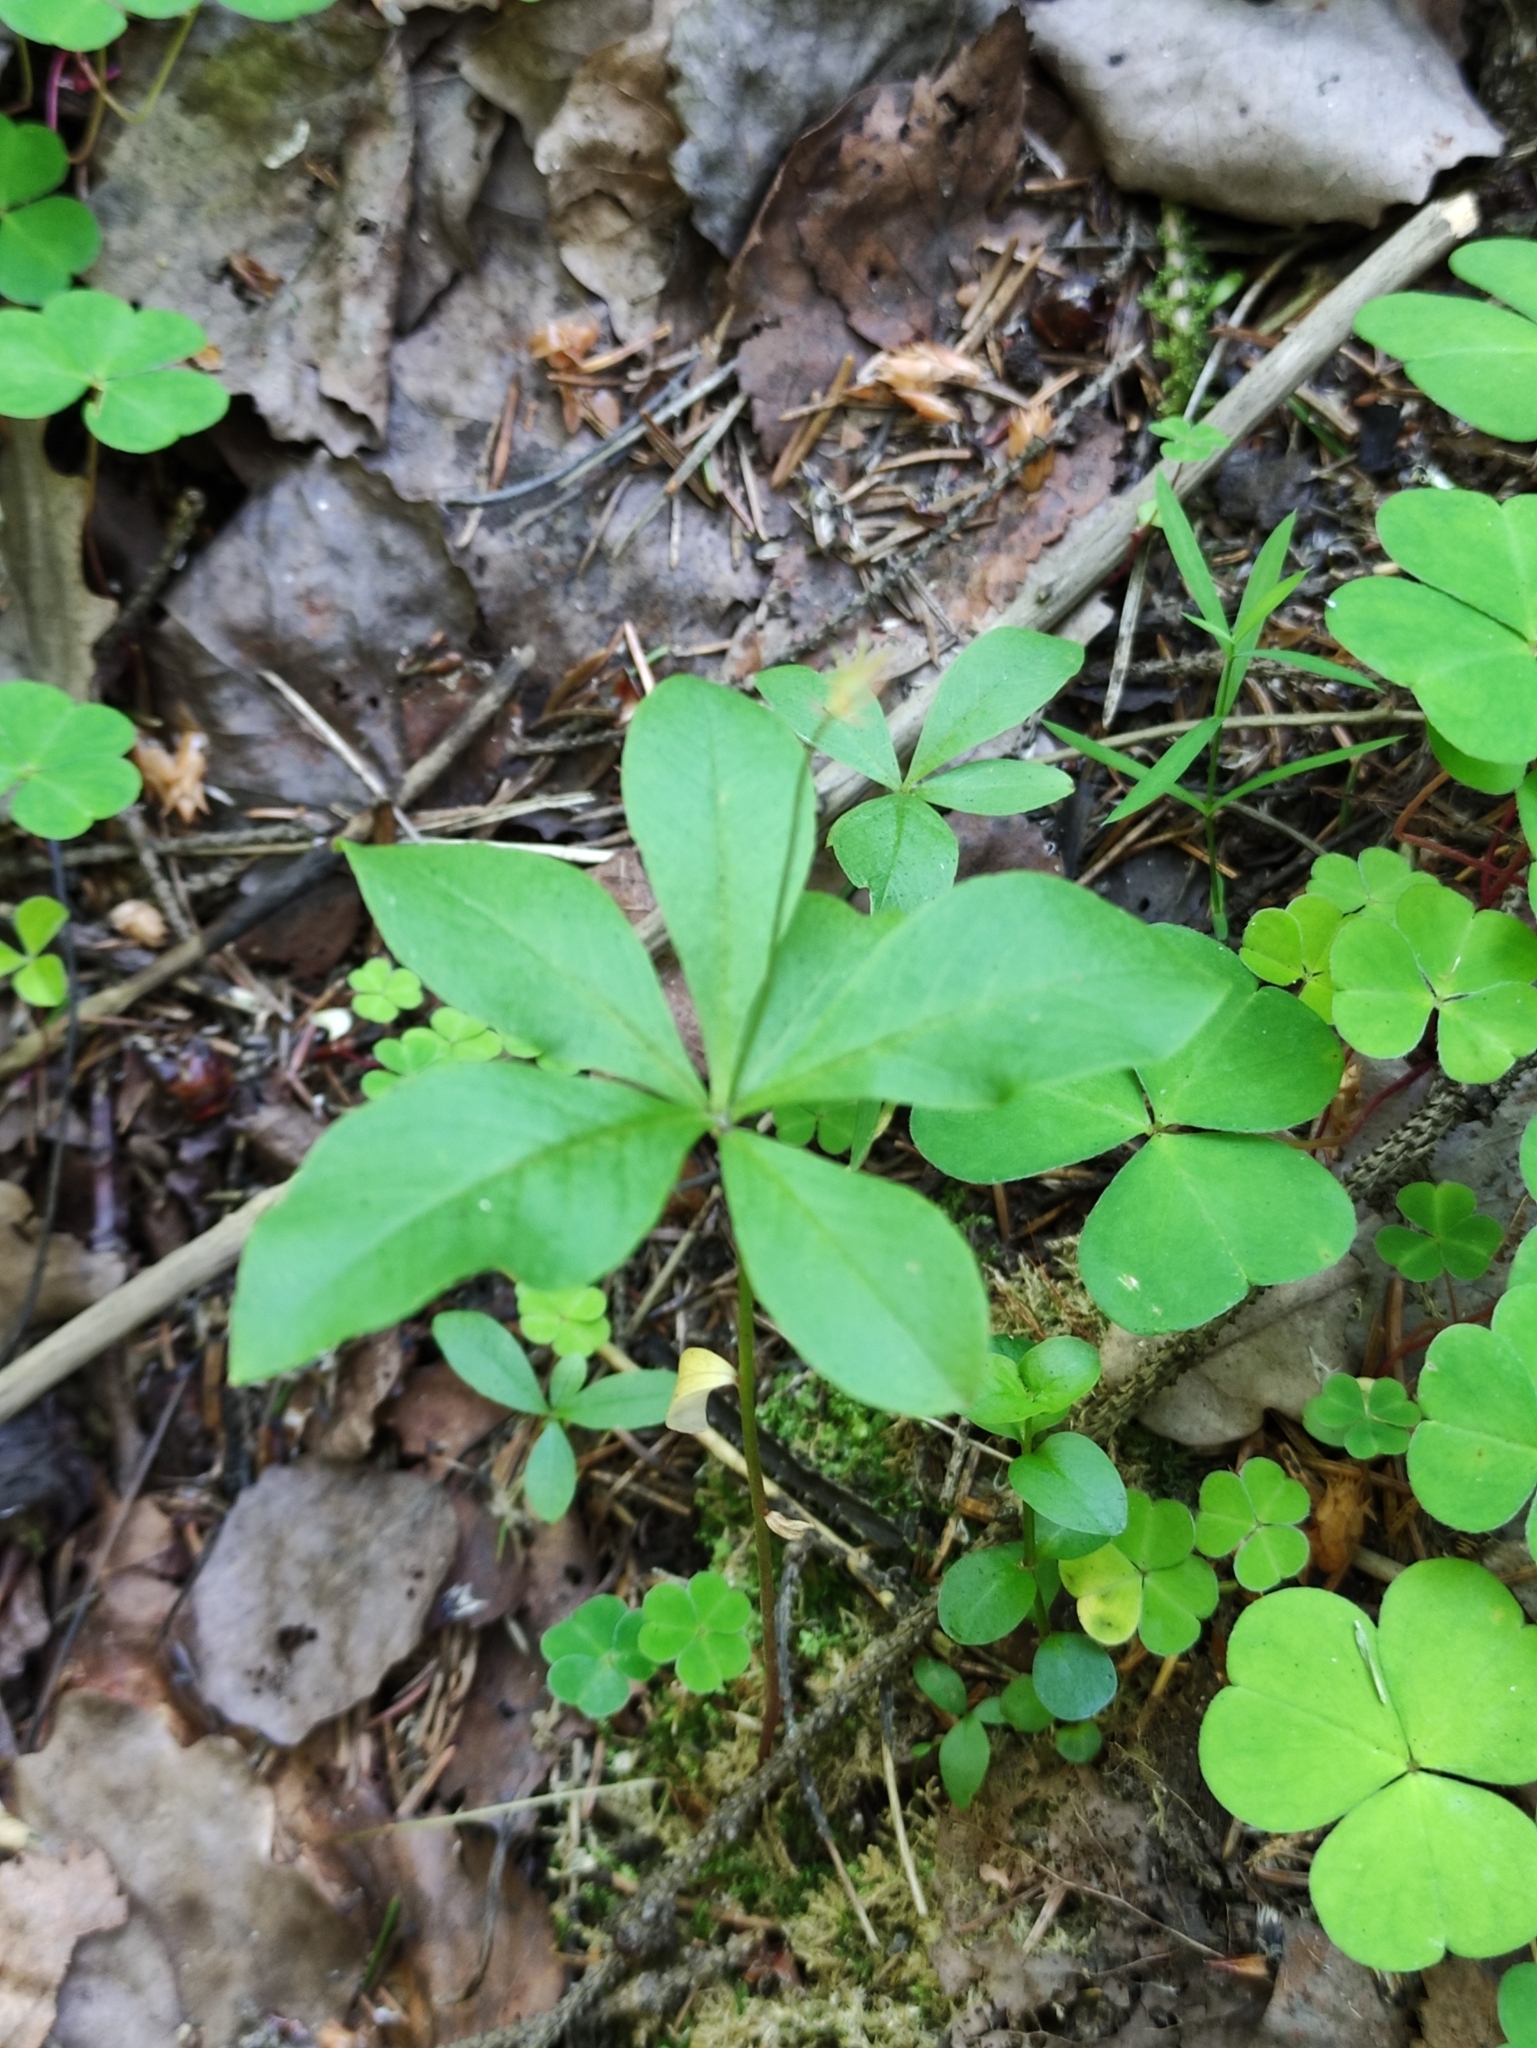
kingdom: Plantae
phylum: Tracheophyta
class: Magnoliopsida
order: Ericales
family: Primulaceae
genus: Lysimachia
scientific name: Lysimachia europaea
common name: Arctic starflower
